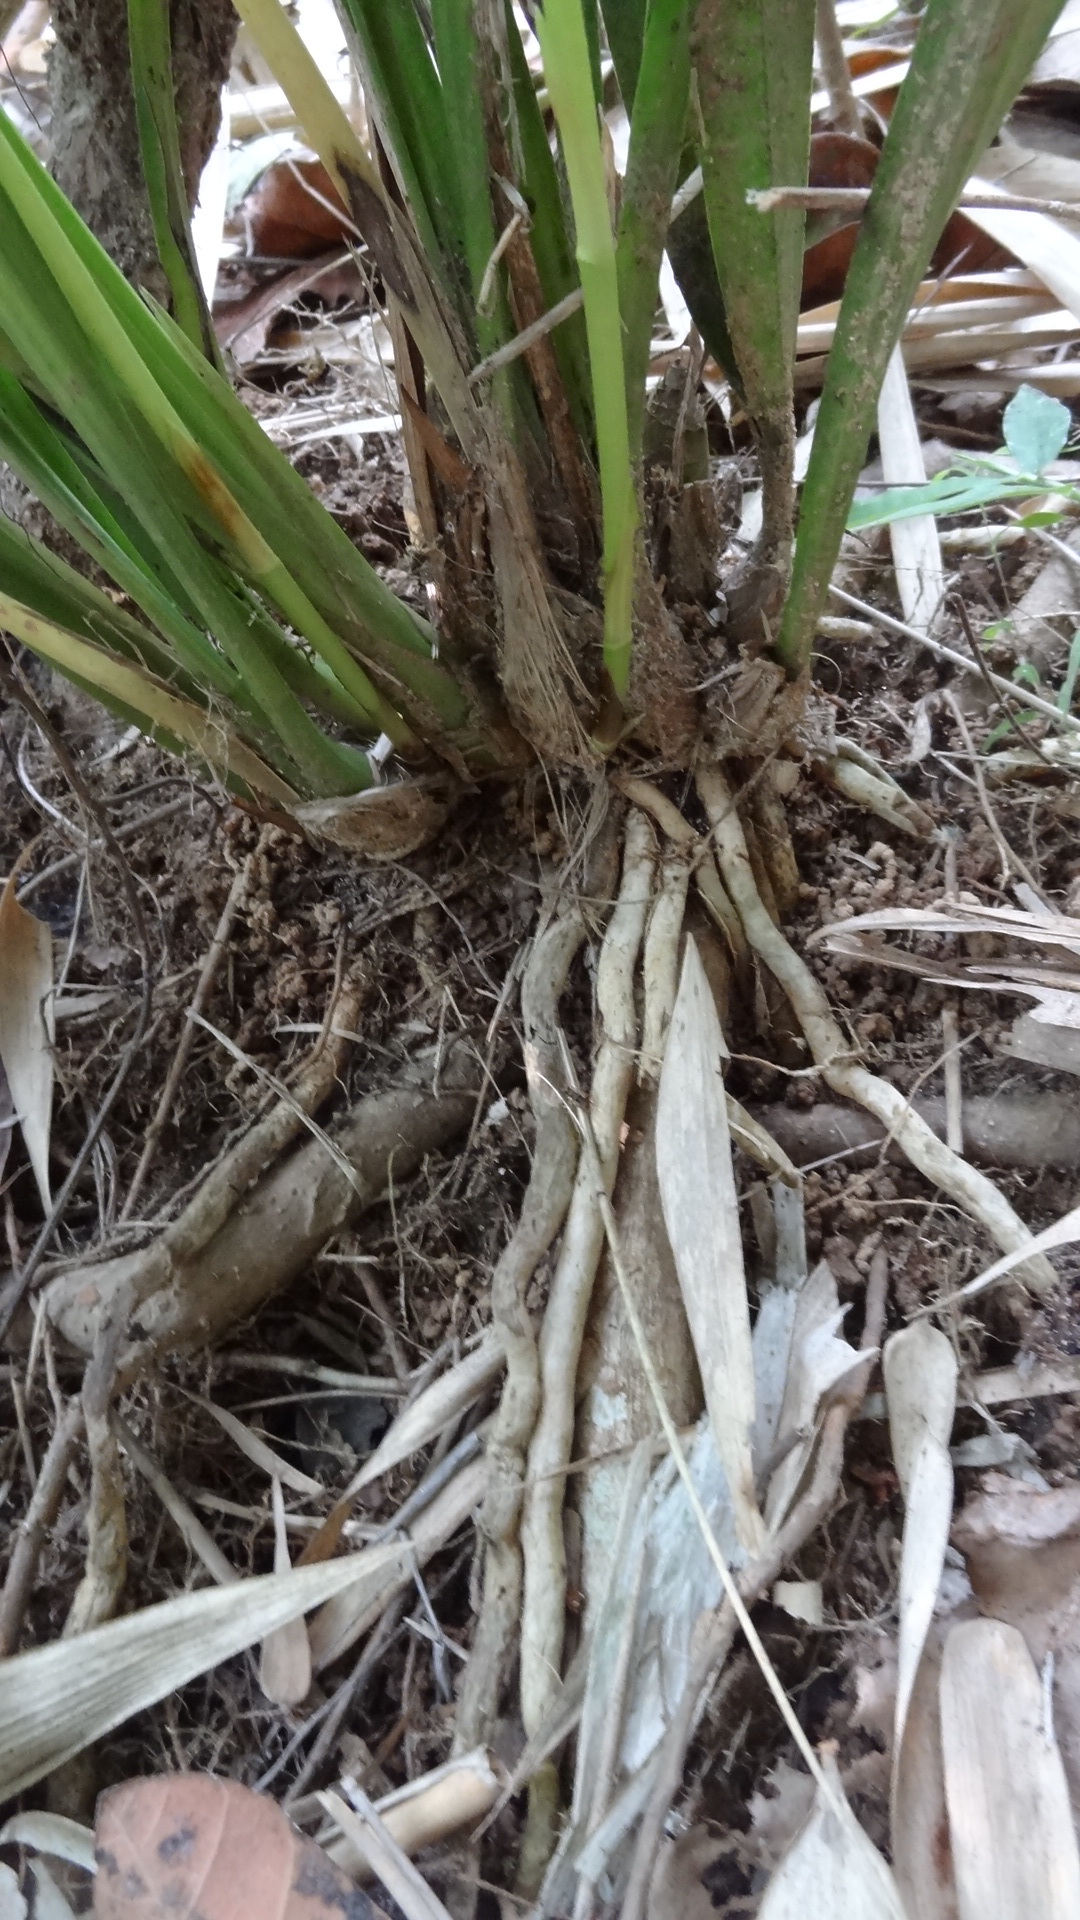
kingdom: Plantae
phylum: Tracheophyta
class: Liliopsida
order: Asparagales
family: Orchidaceae
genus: Cymbidium
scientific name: Cymbidium ensifolium
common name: Fukien-orchid
